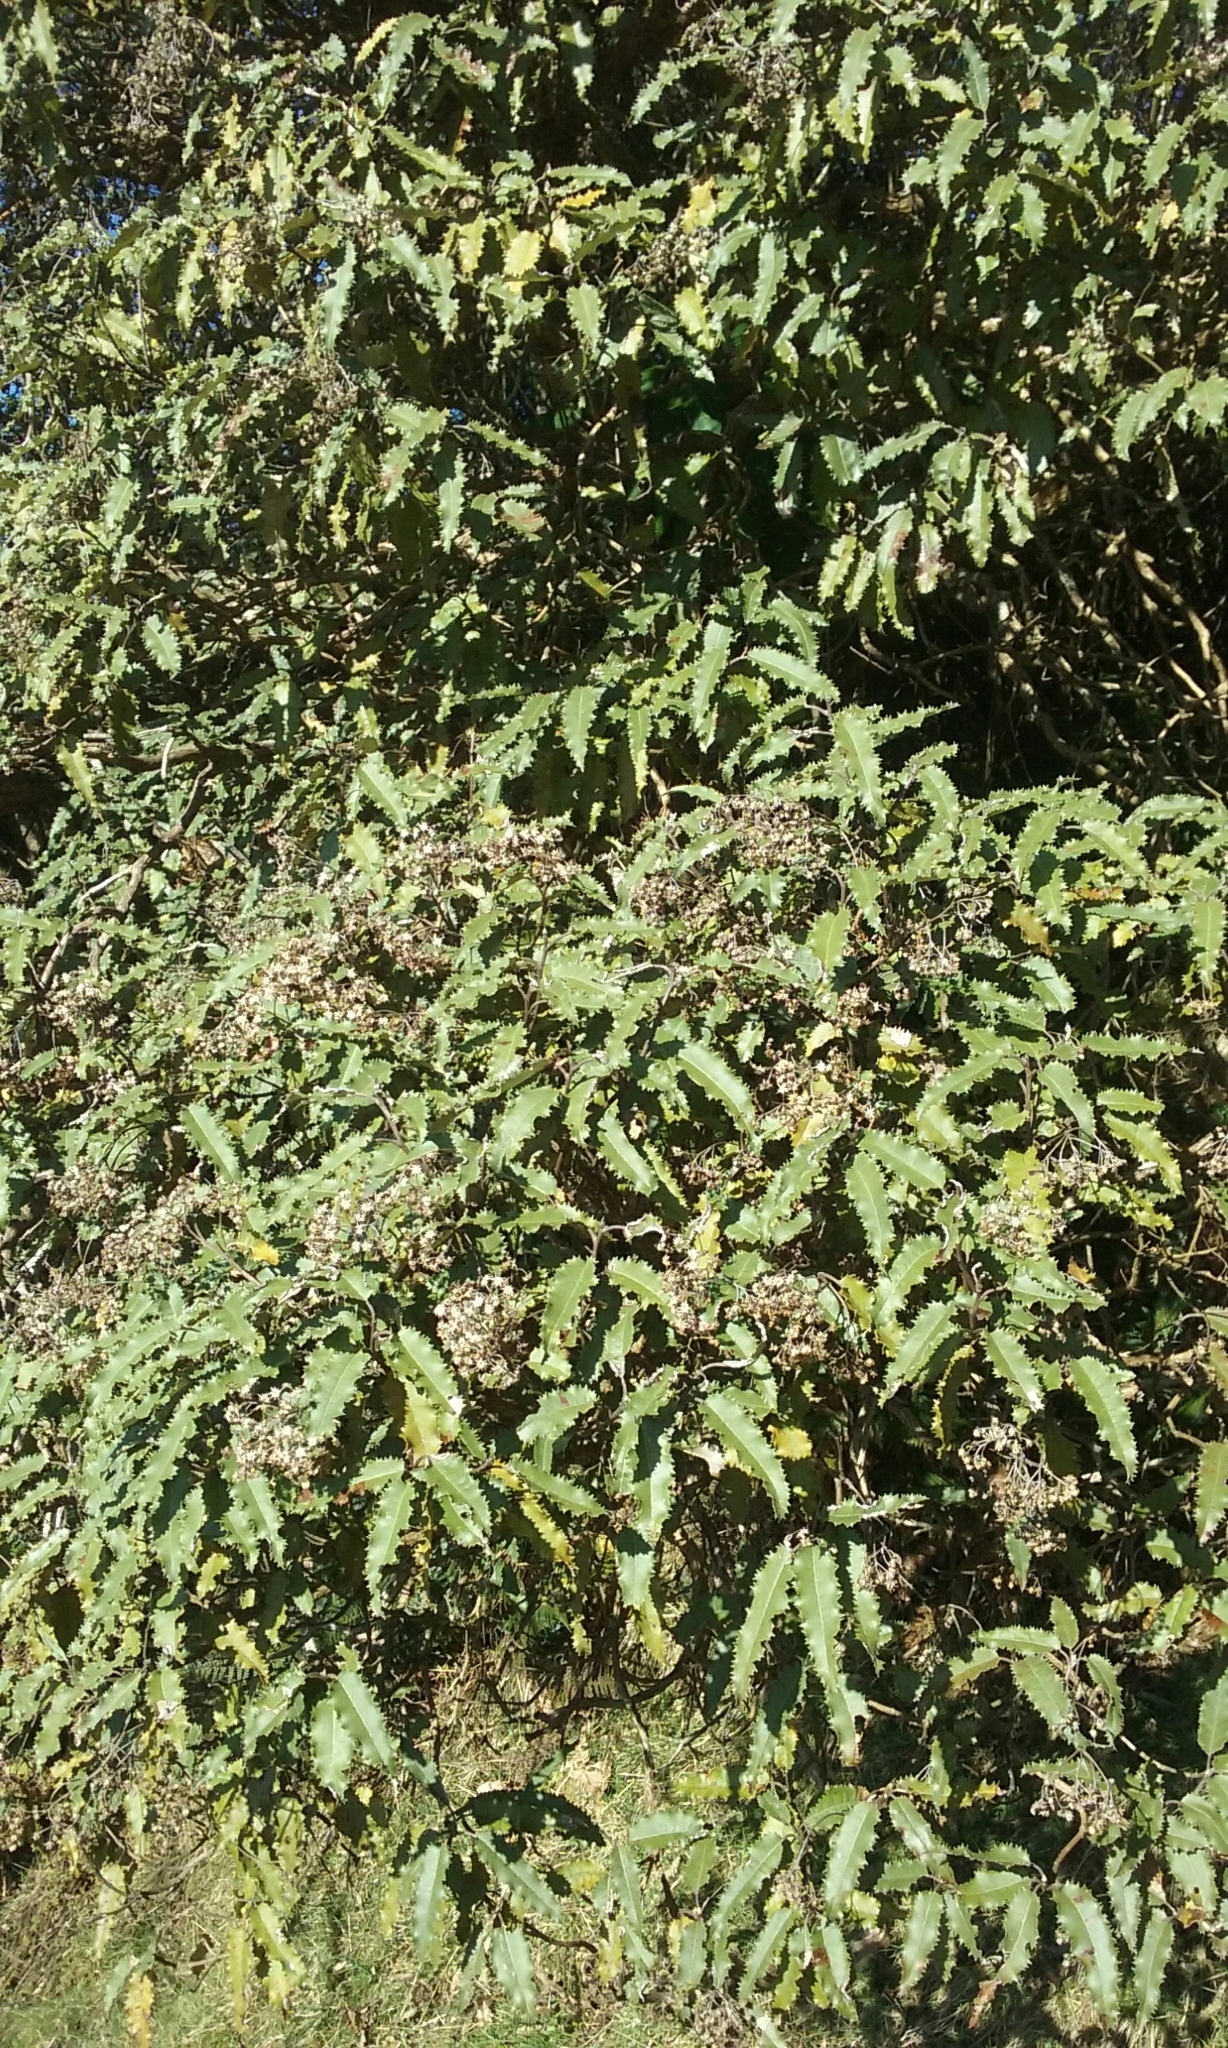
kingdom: Plantae
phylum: Tracheophyta
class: Magnoliopsida
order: Asterales
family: Asteraceae
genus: Olearia
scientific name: Olearia ilicifolia
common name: Maori-holly
